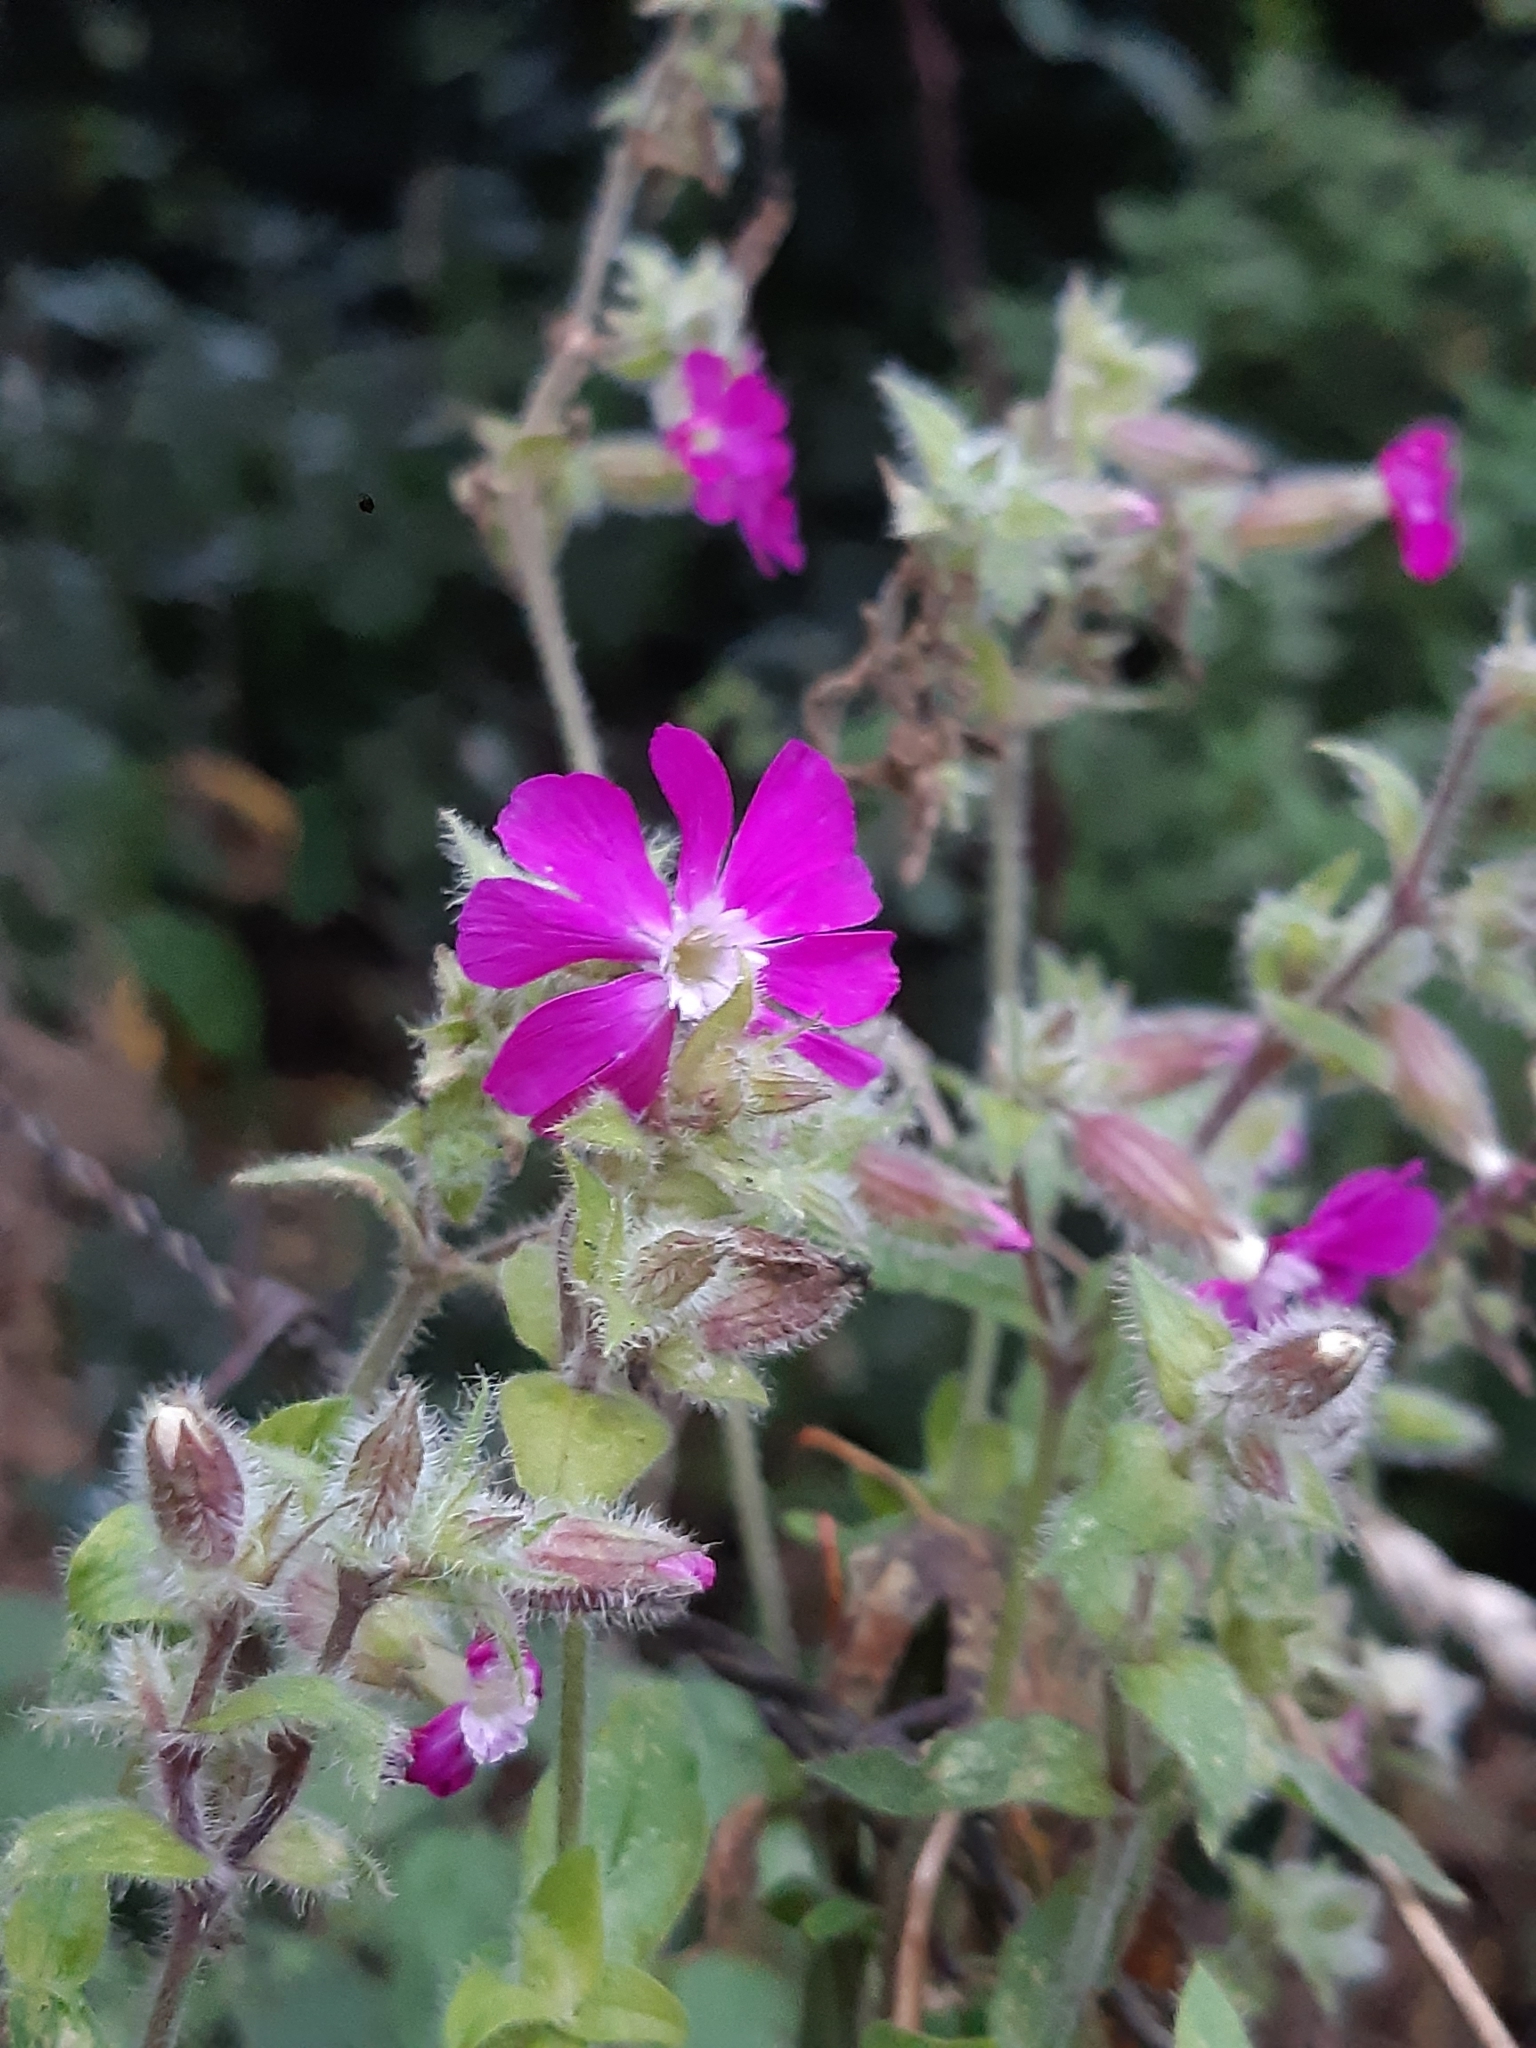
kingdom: Plantae
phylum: Tracheophyta
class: Magnoliopsida
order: Caryophyllales
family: Caryophyllaceae
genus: Silene
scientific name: Silene dioica
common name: Red campion
